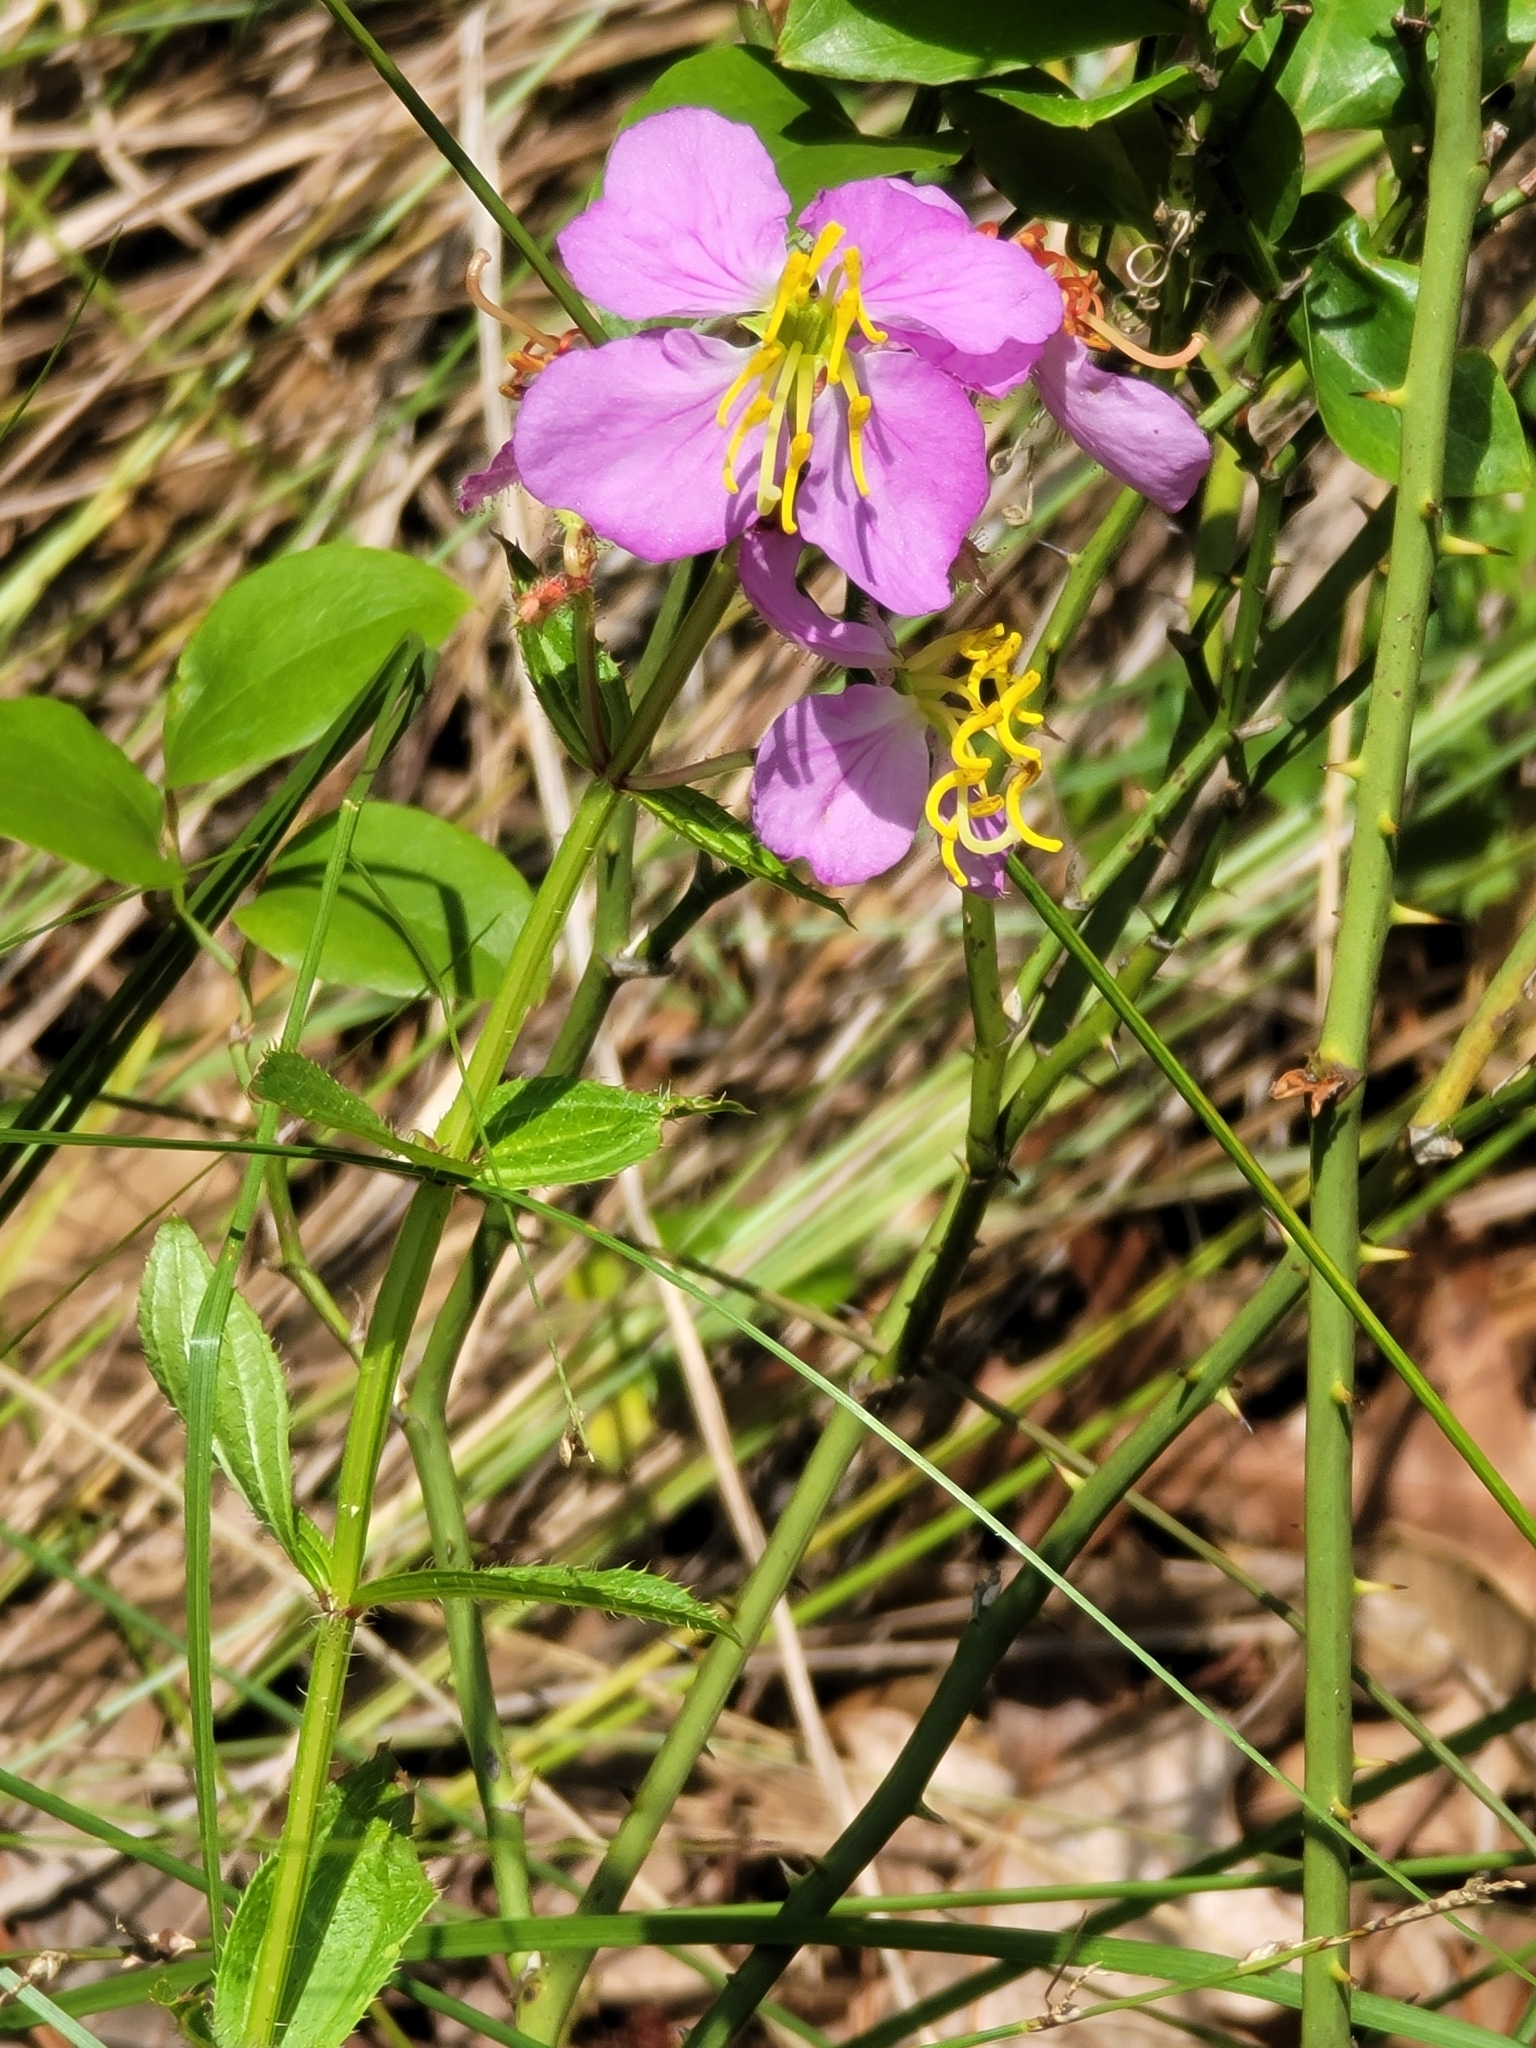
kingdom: Plantae
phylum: Tracheophyta
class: Magnoliopsida
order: Myrtales
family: Melastomataceae
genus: Rhexia
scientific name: Rhexia virginica
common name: Common meadow beauty
